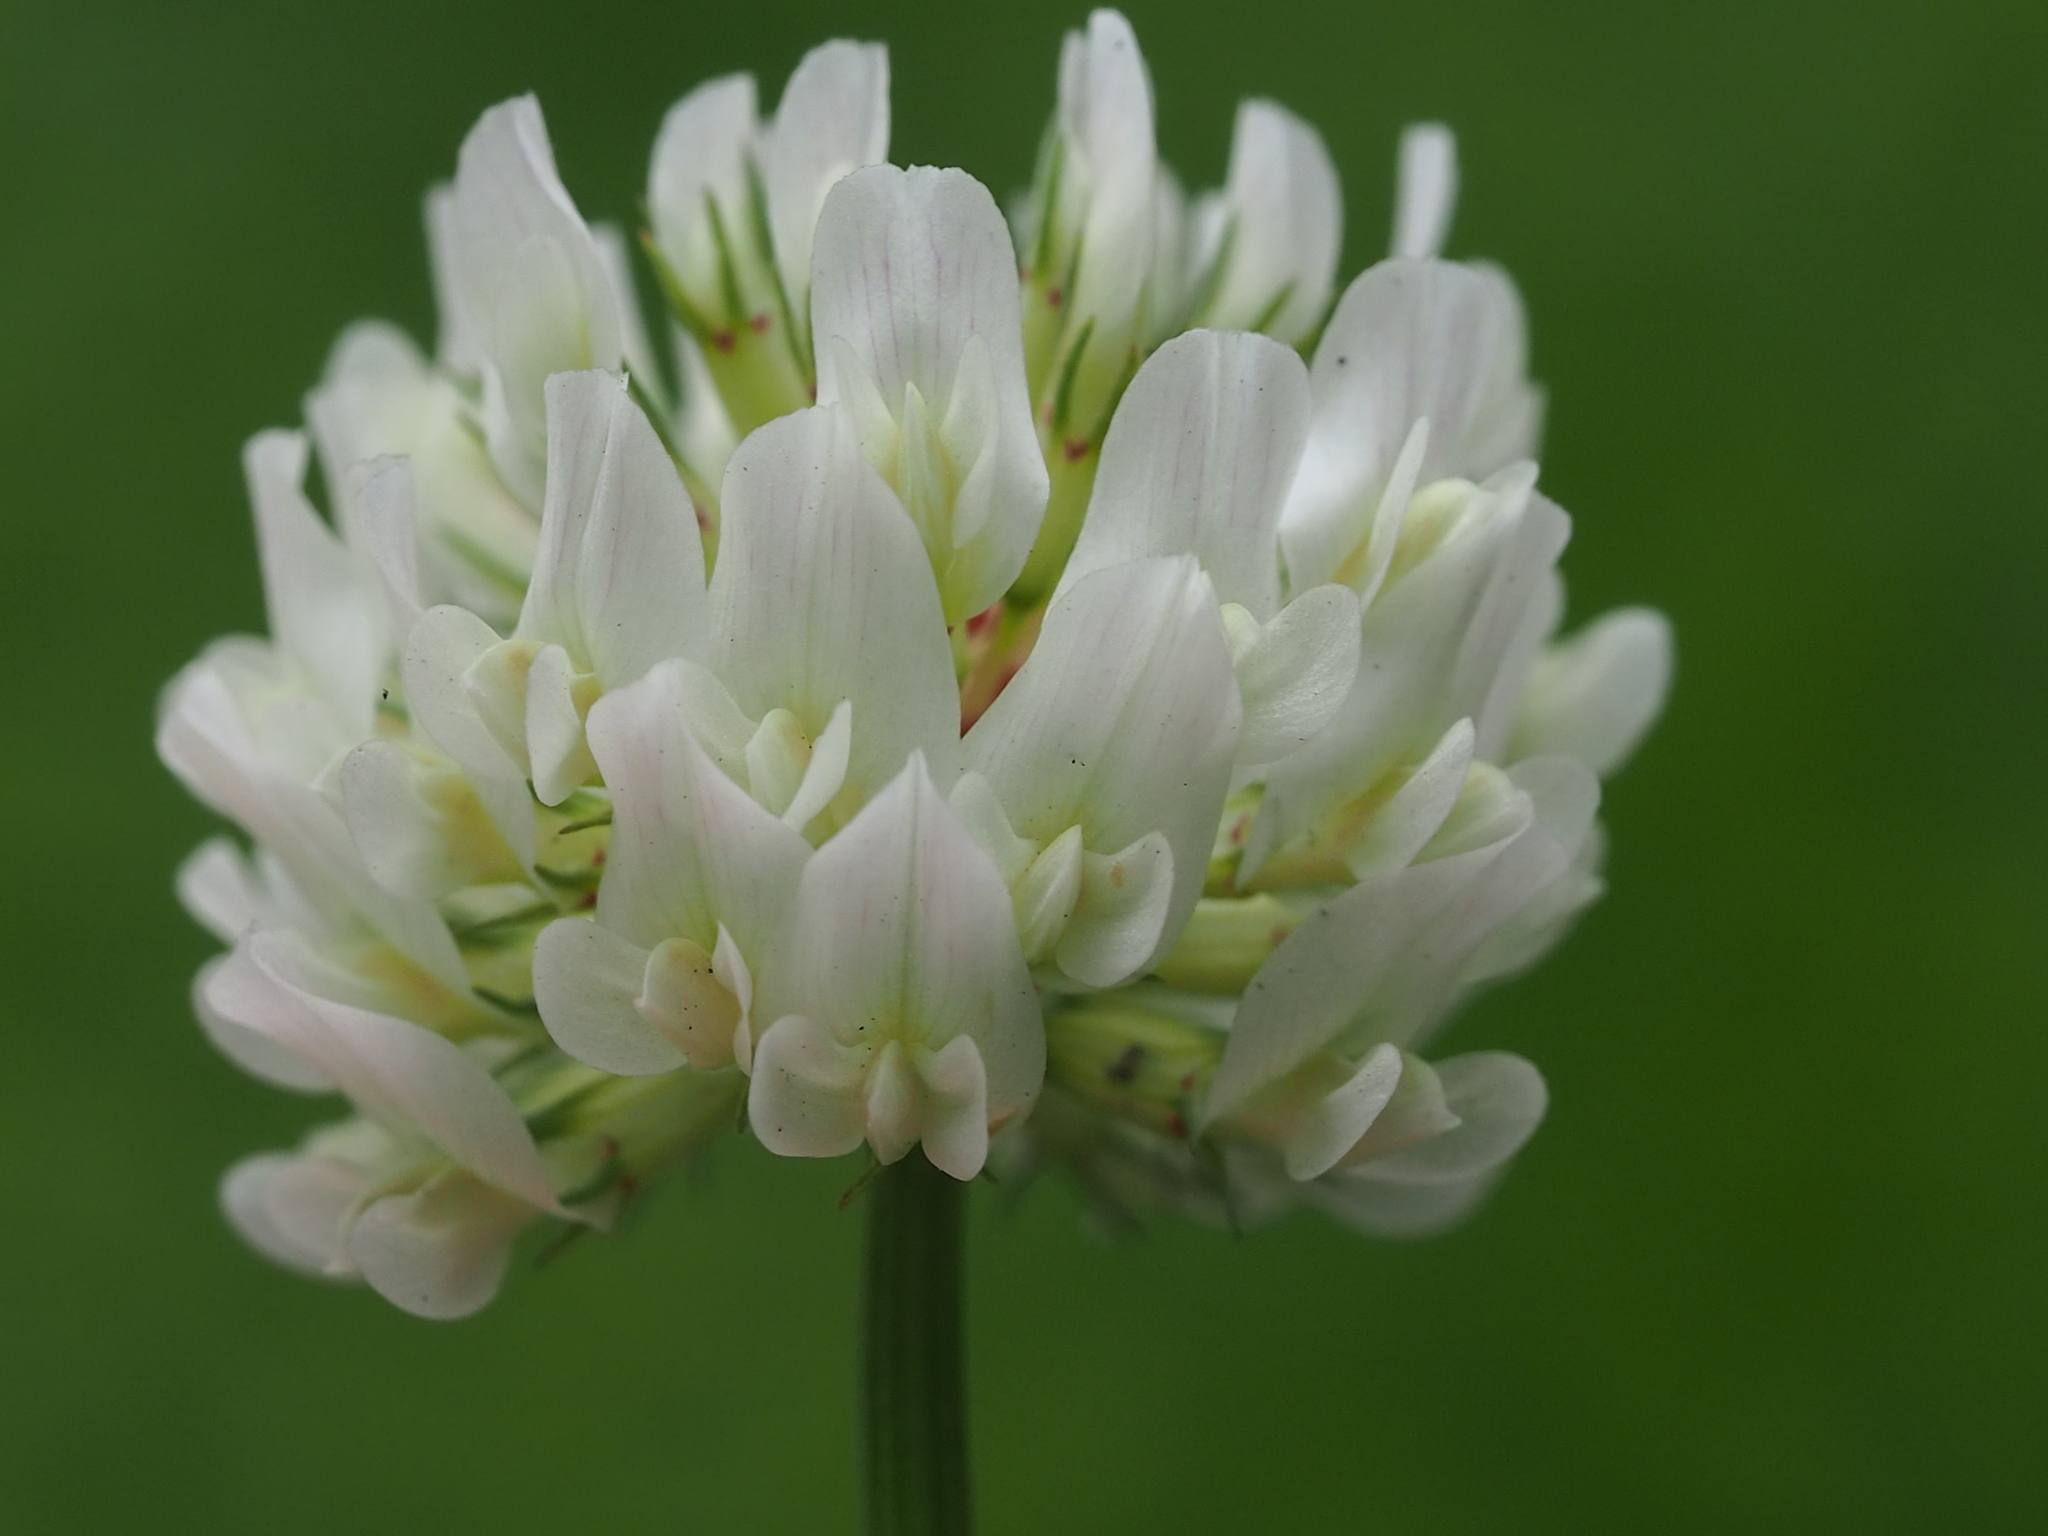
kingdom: Plantae
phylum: Tracheophyta
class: Magnoliopsida
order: Fabales
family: Fabaceae
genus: Trifolium
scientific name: Trifolium repens
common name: White clover
